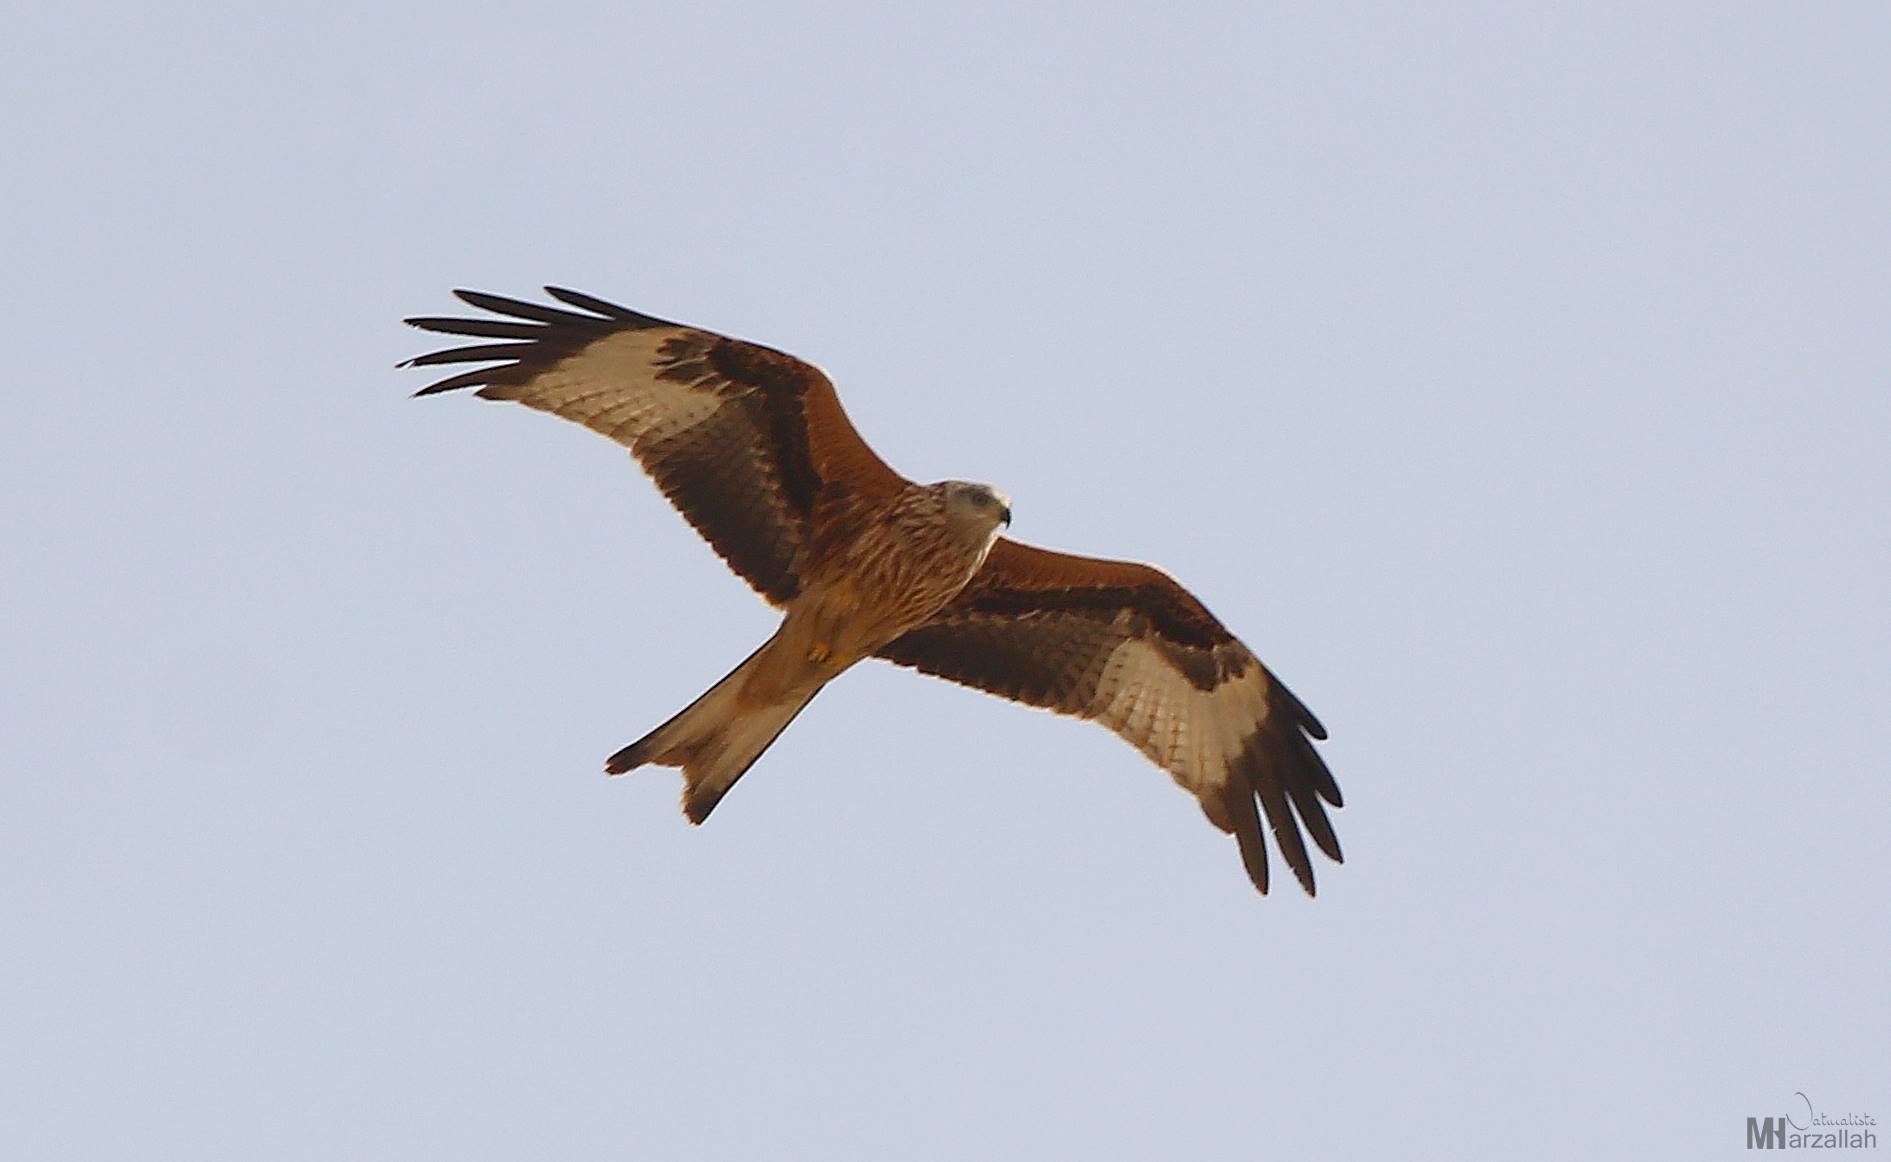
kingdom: Animalia
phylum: Chordata
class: Aves
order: Accipitriformes
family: Accipitridae
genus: Milvus
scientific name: Milvus milvus
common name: Red kite
